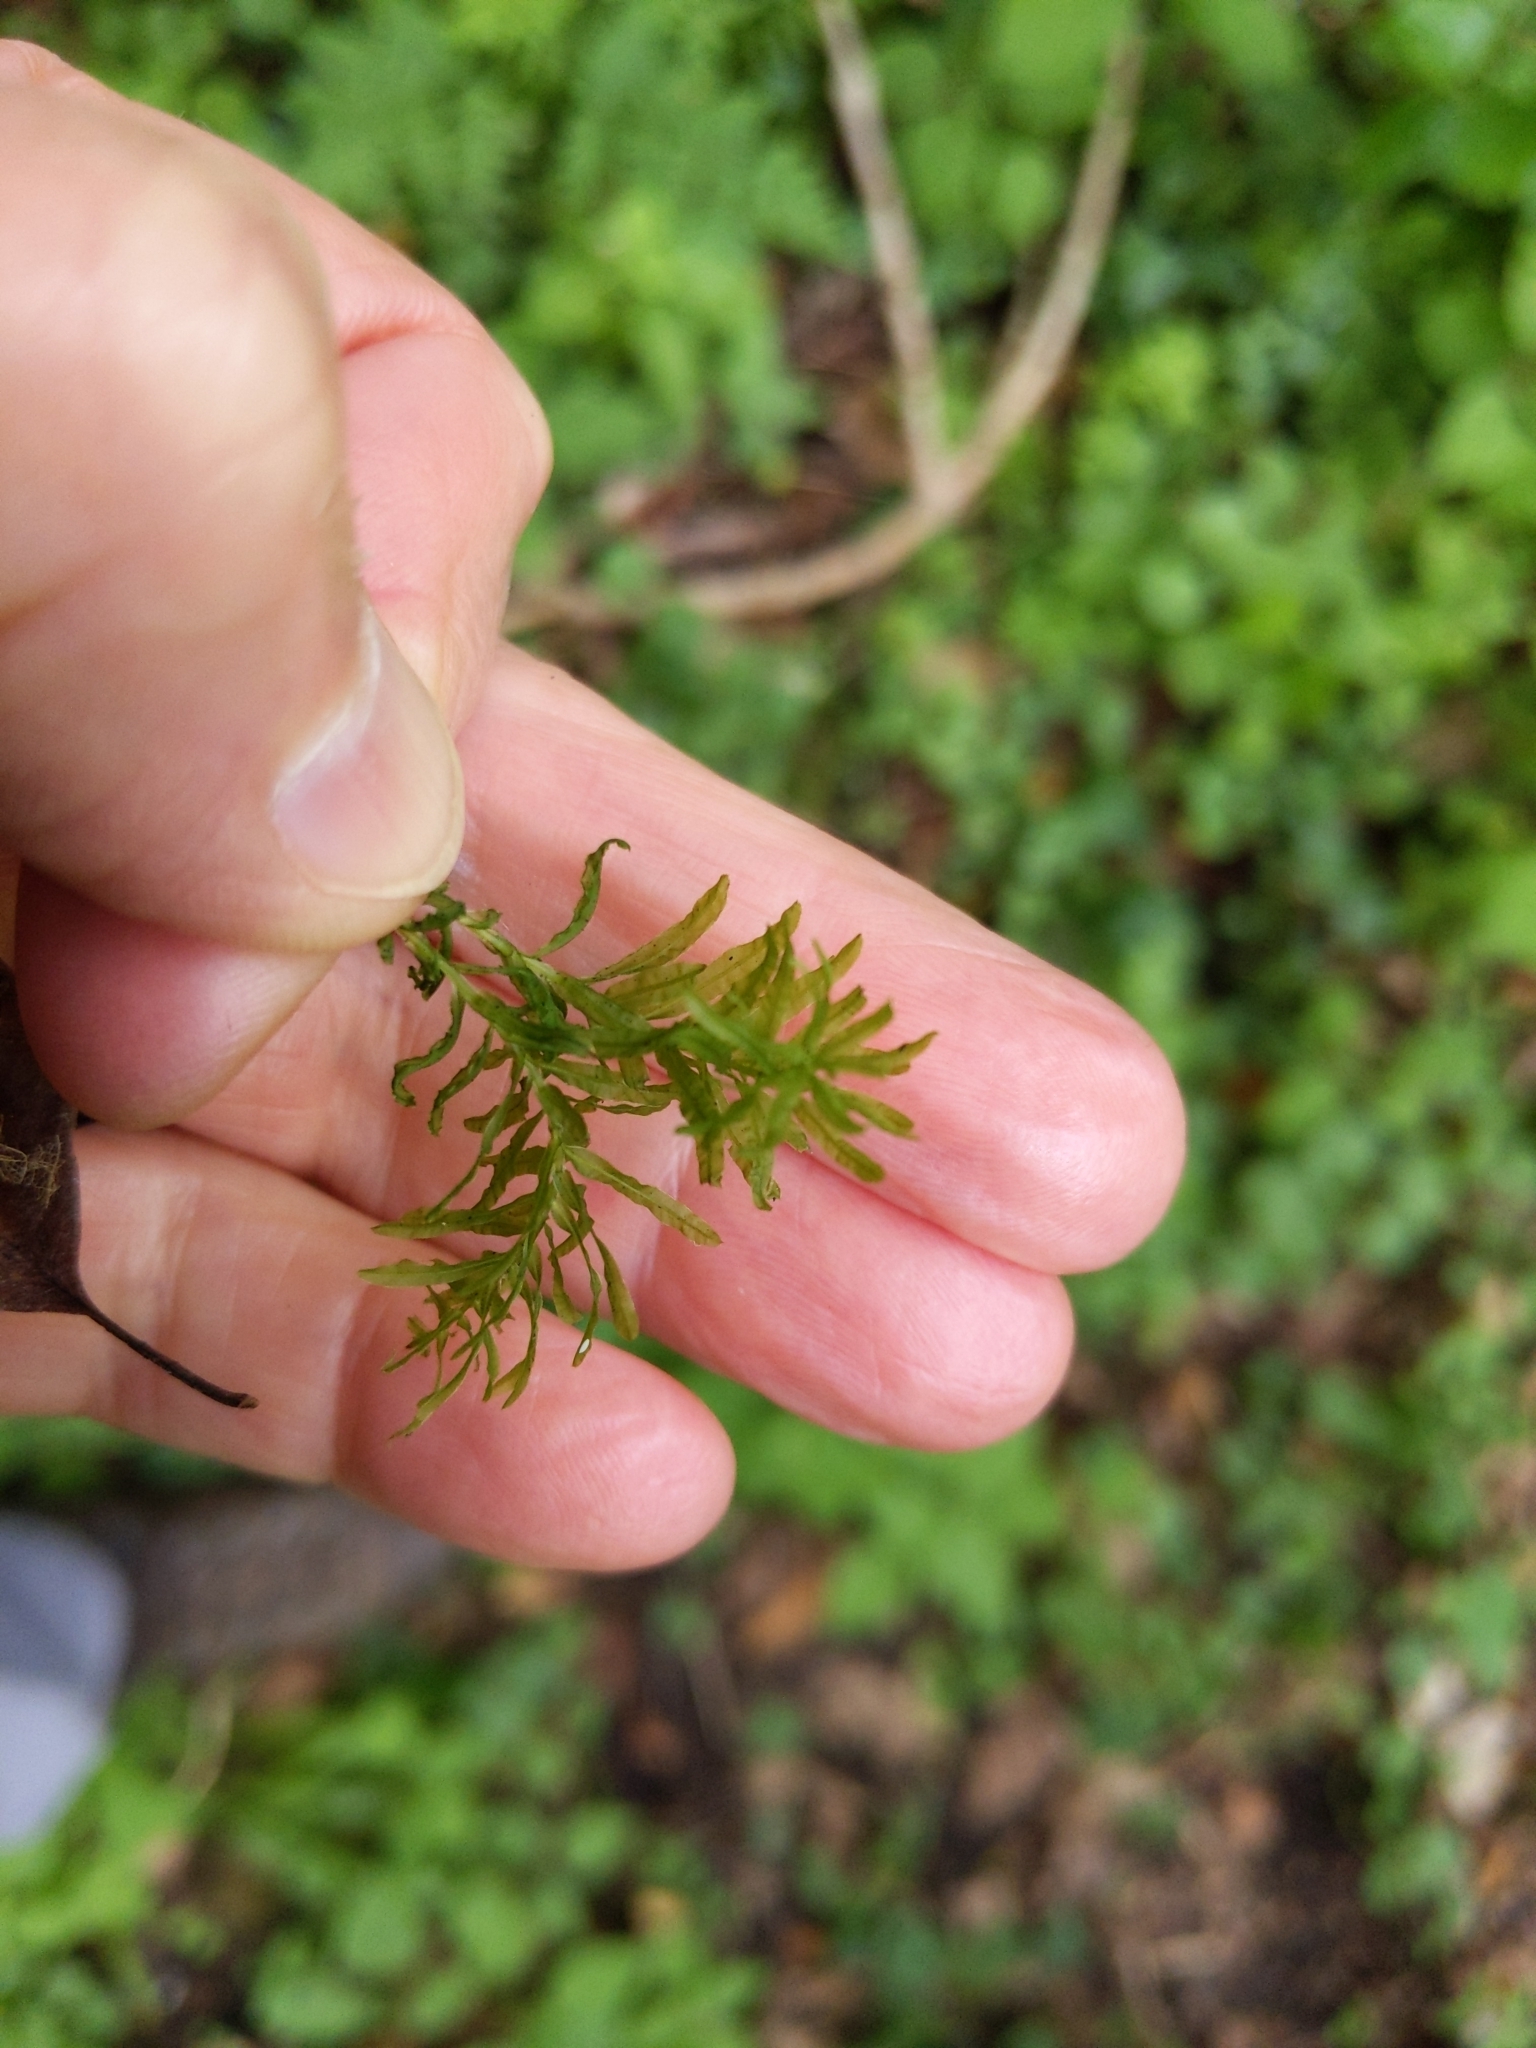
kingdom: Plantae
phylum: Bryophyta
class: Bryopsida
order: Bryales
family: Mniaceae
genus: Plagiomnium
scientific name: Plagiomnium undulatum
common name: Hart's-tongue thyme-moss
